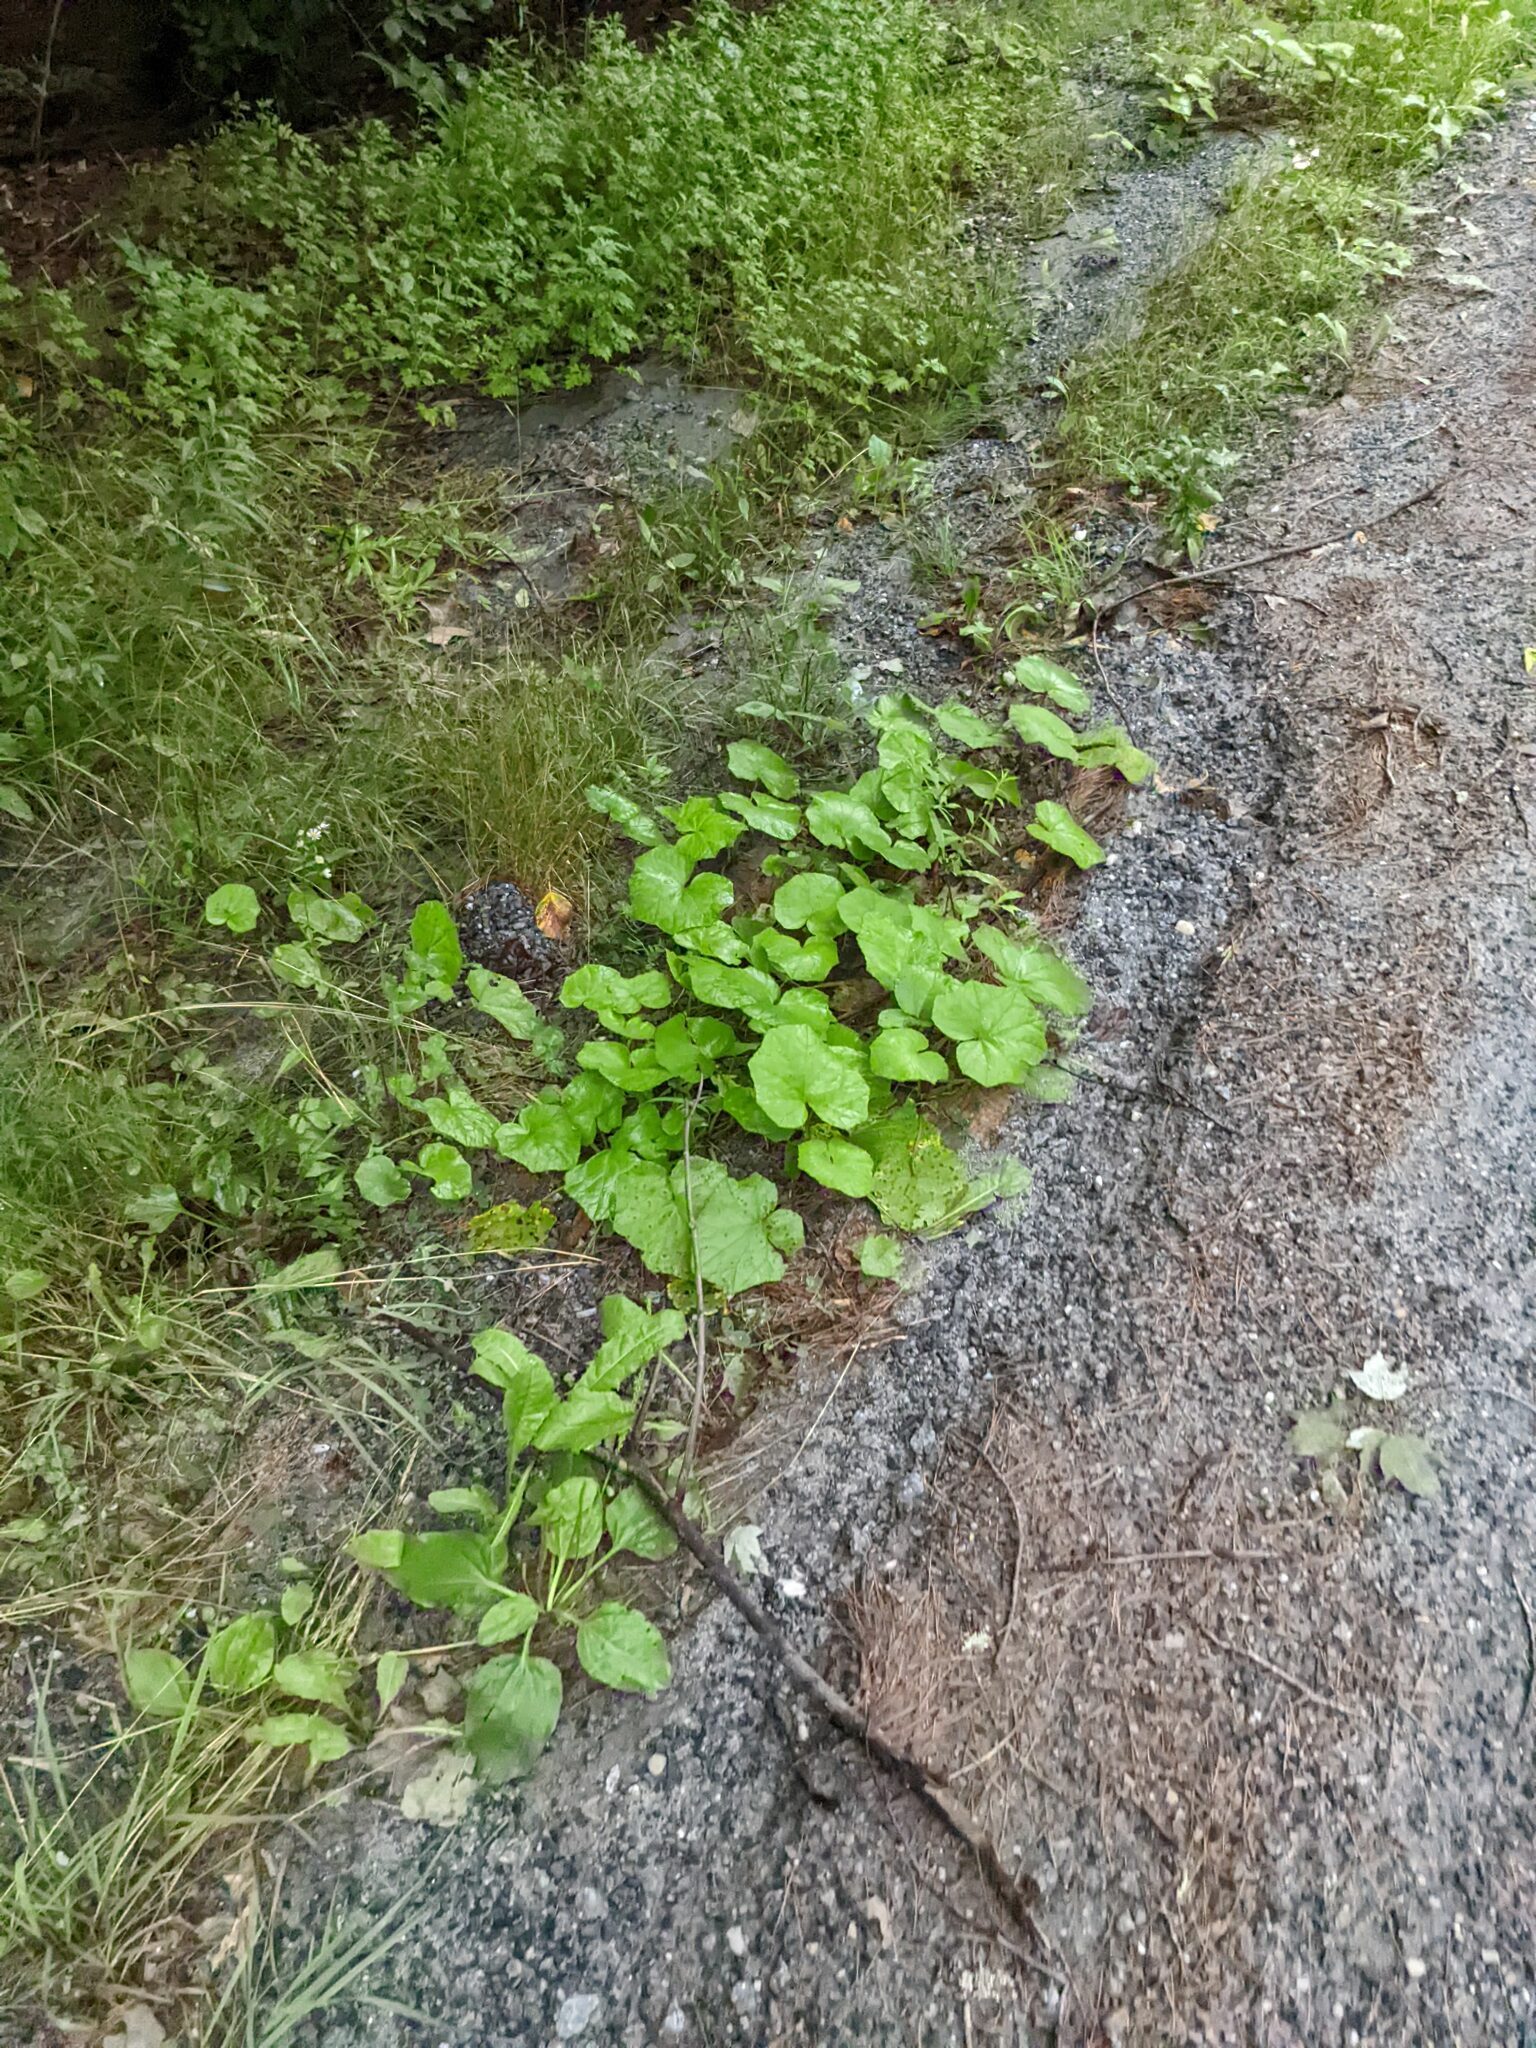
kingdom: Plantae
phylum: Tracheophyta
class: Magnoliopsida
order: Asterales
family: Asteraceae
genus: Tussilago
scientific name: Tussilago farfara
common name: Coltsfoot
